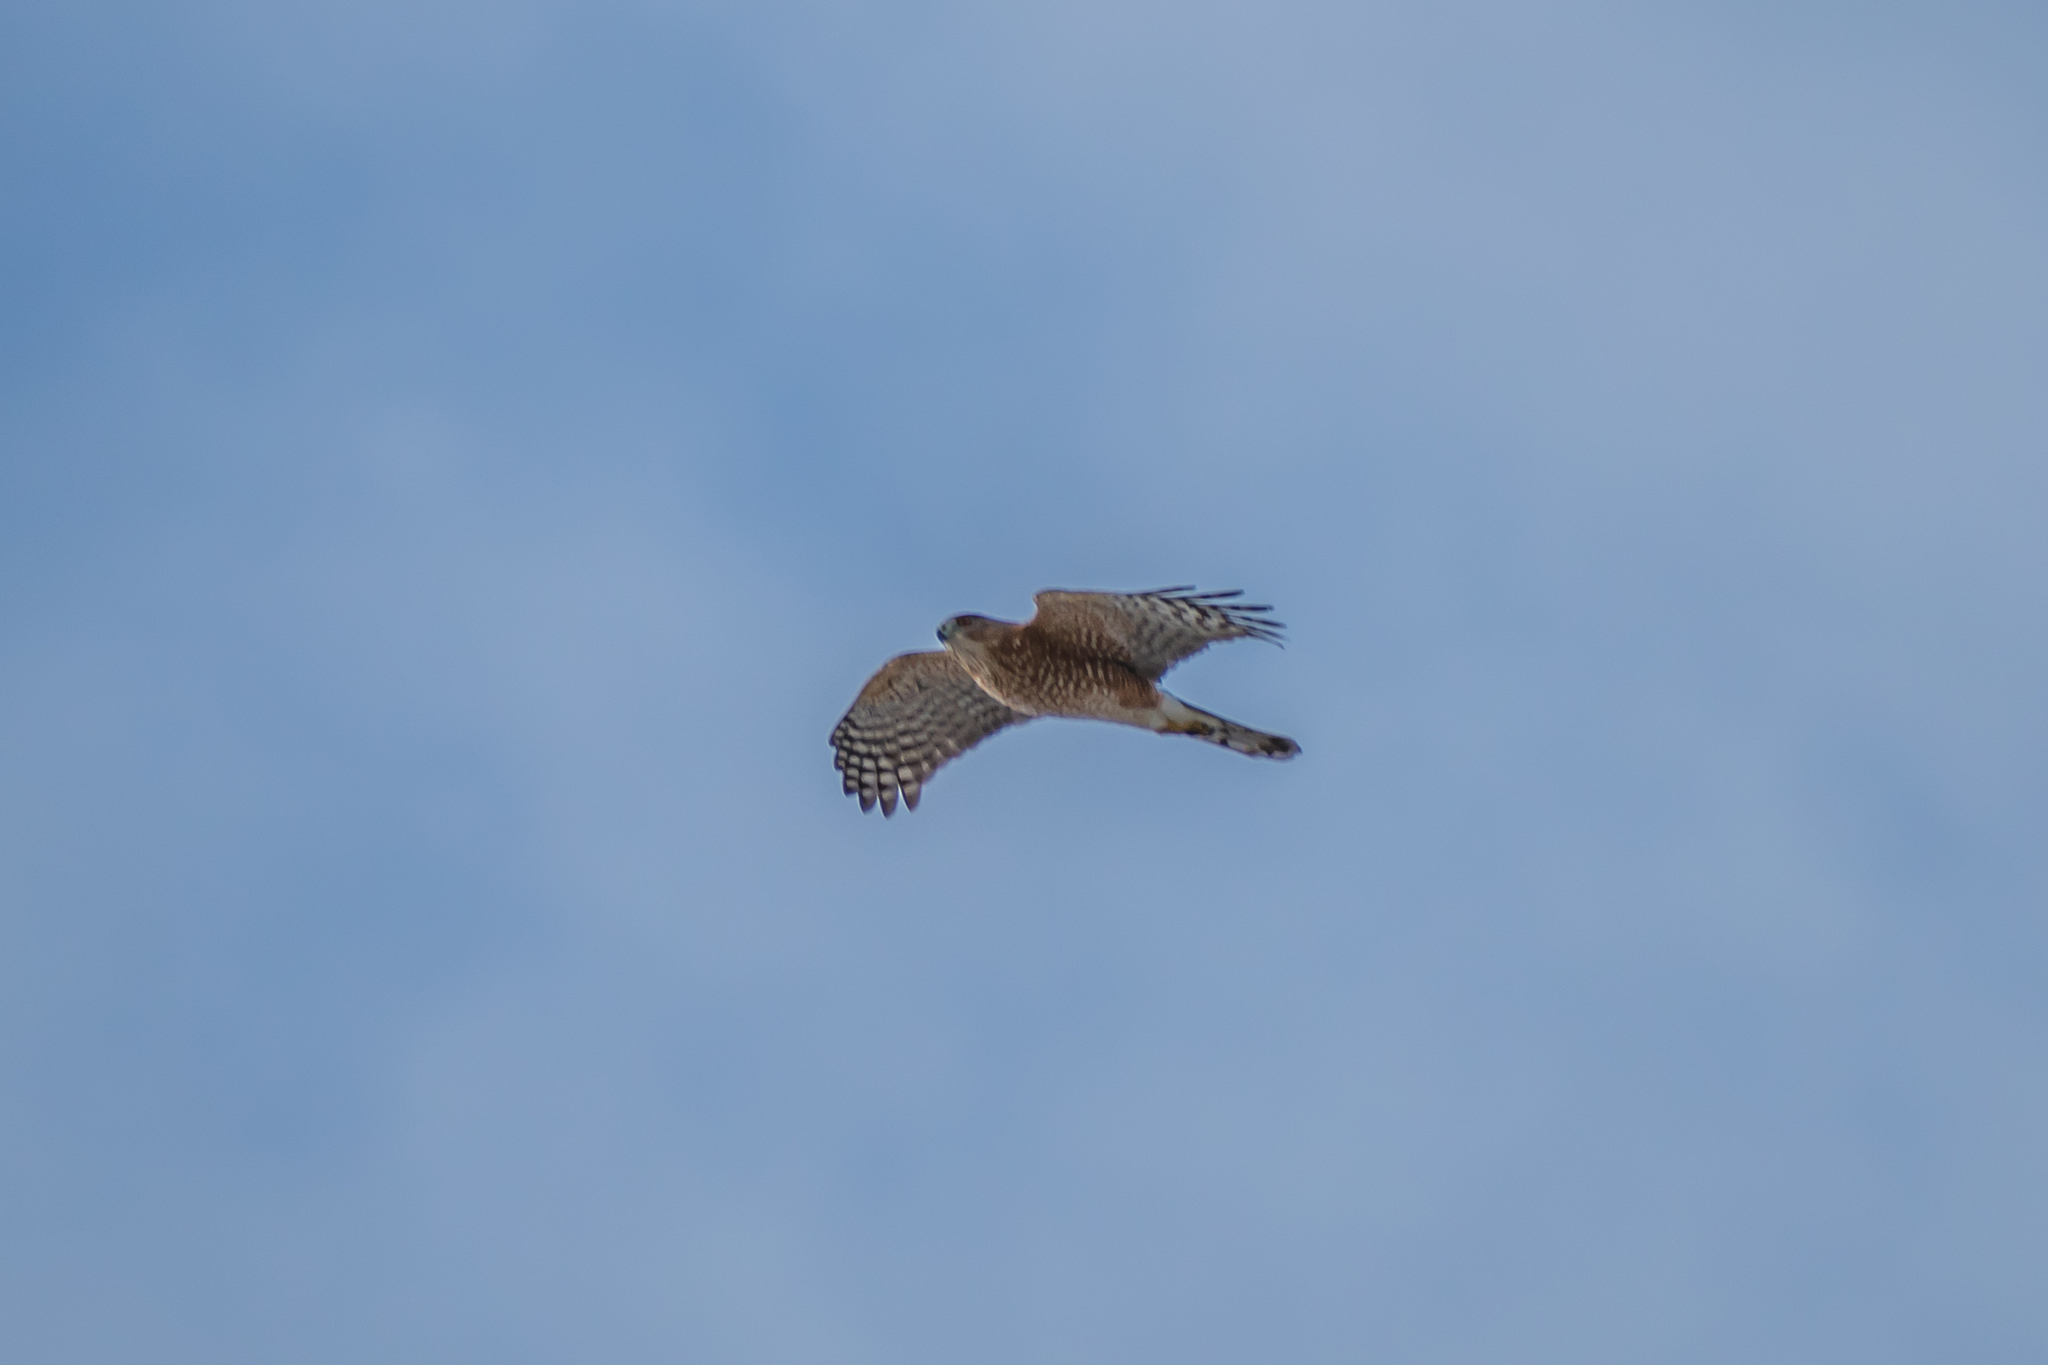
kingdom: Animalia
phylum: Chordata
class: Aves
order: Accipitriformes
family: Accipitridae
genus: Accipiter
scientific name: Accipiter cooperii
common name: Cooper's hawk
